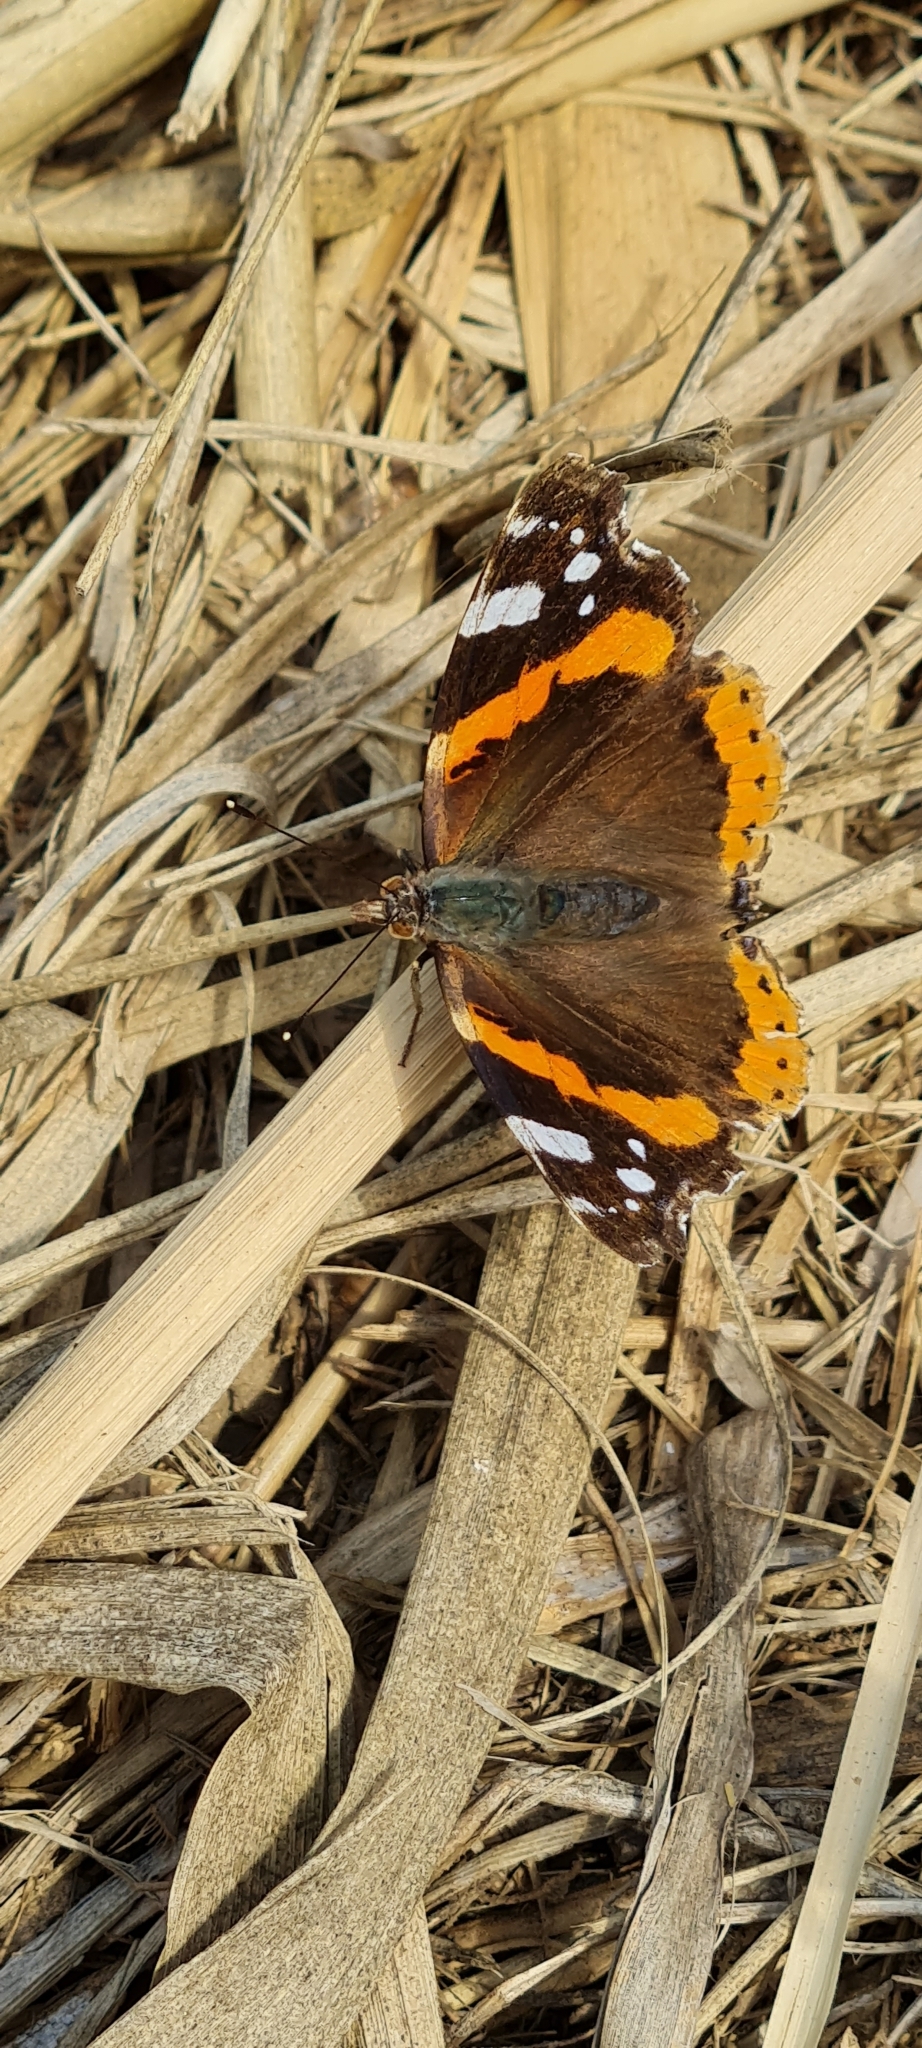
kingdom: Animalia
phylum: Arthropoda
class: Insecta
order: Lepidoptera
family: Nymphalidae
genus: Vanessa
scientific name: Vanessa atalanta
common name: Red admiral
